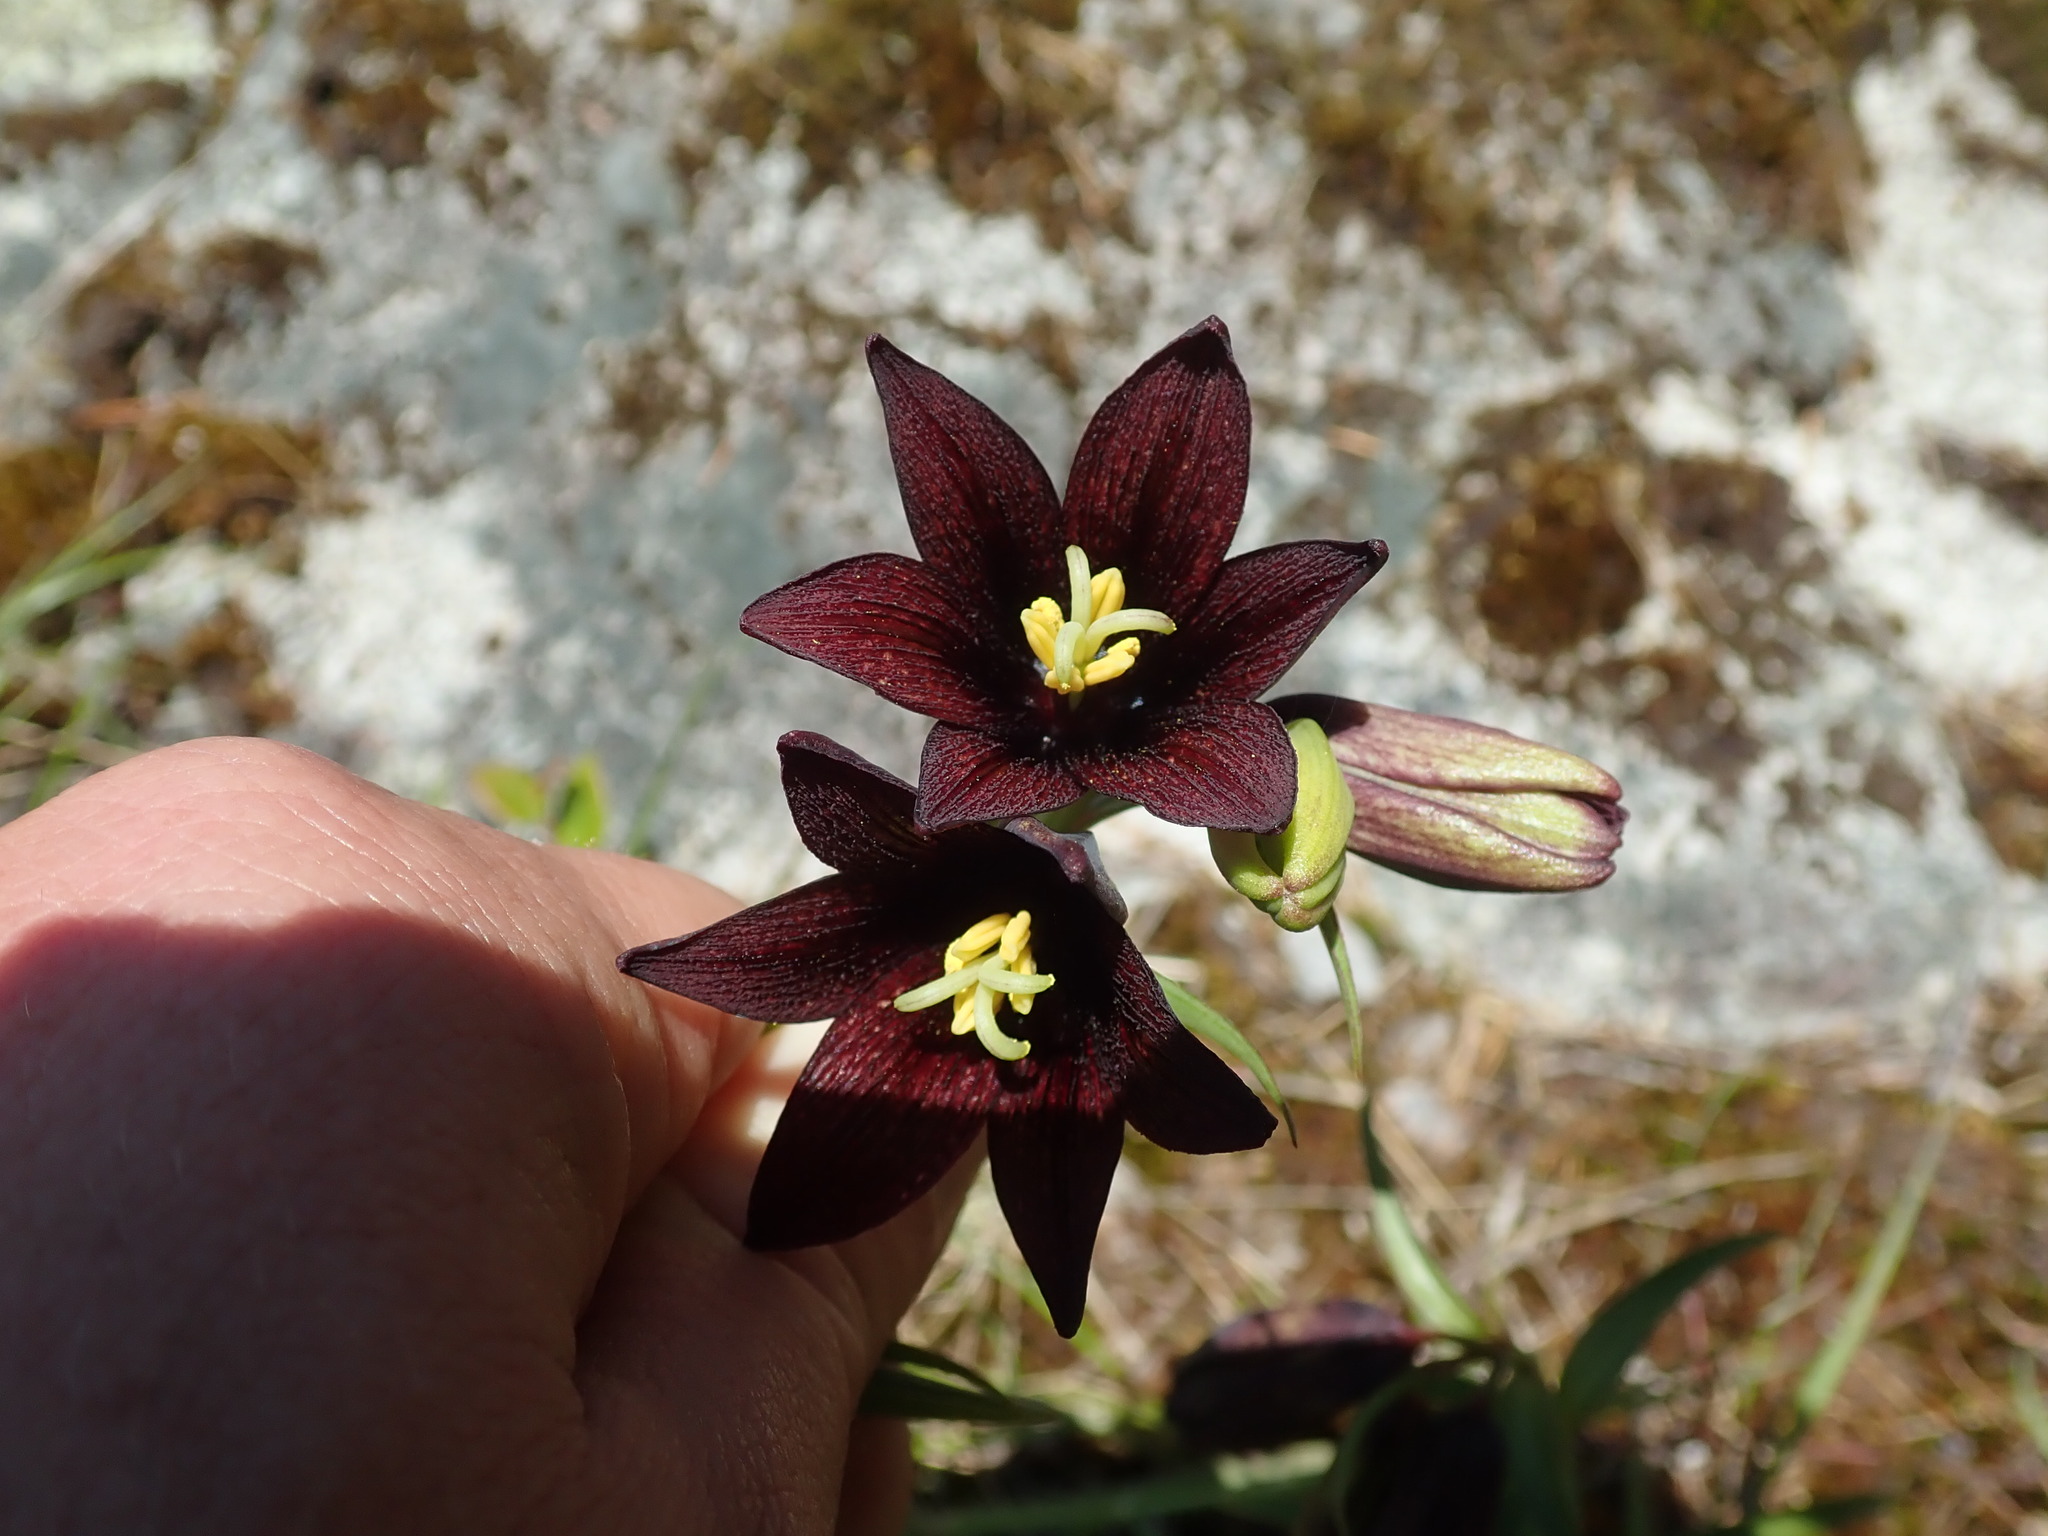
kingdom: Plantae
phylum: Tracheophyta
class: Liliopsida
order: Liliales
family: Liliaceae
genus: Fritillaria
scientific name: Fritillaria camschatcensis
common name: Kamchatka fritillary
